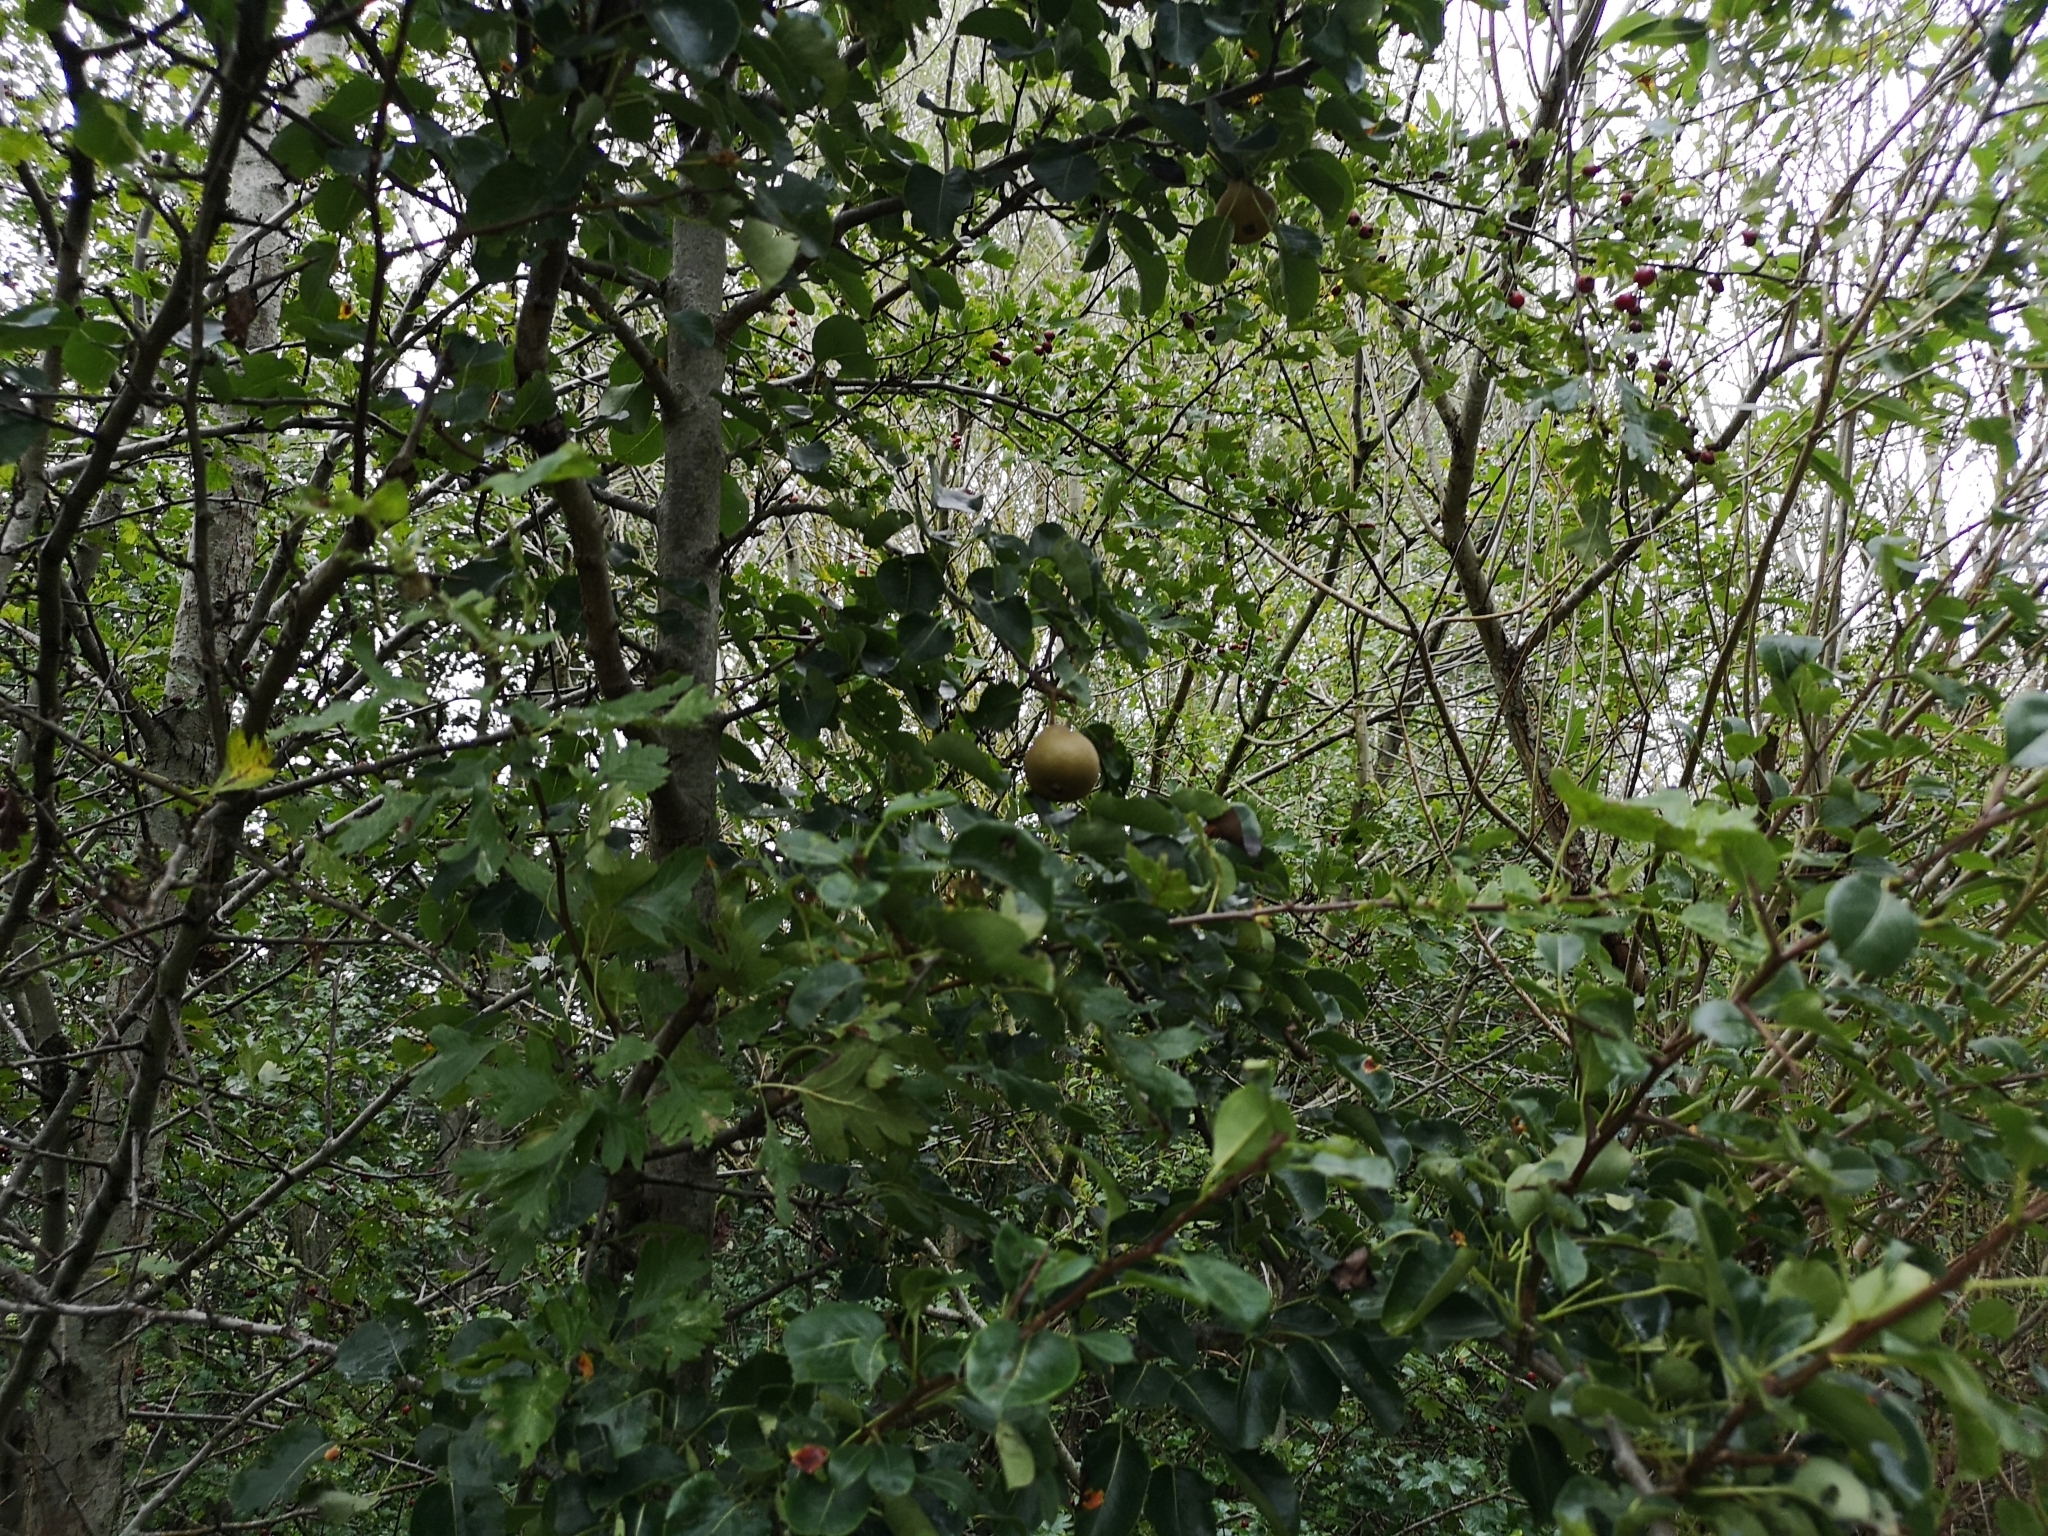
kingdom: Plantae
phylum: Tracheophyta
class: Magnoliopsida
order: Rosales
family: Rosaceae
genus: Pyrus
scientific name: Pyrus communis
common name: Pear
